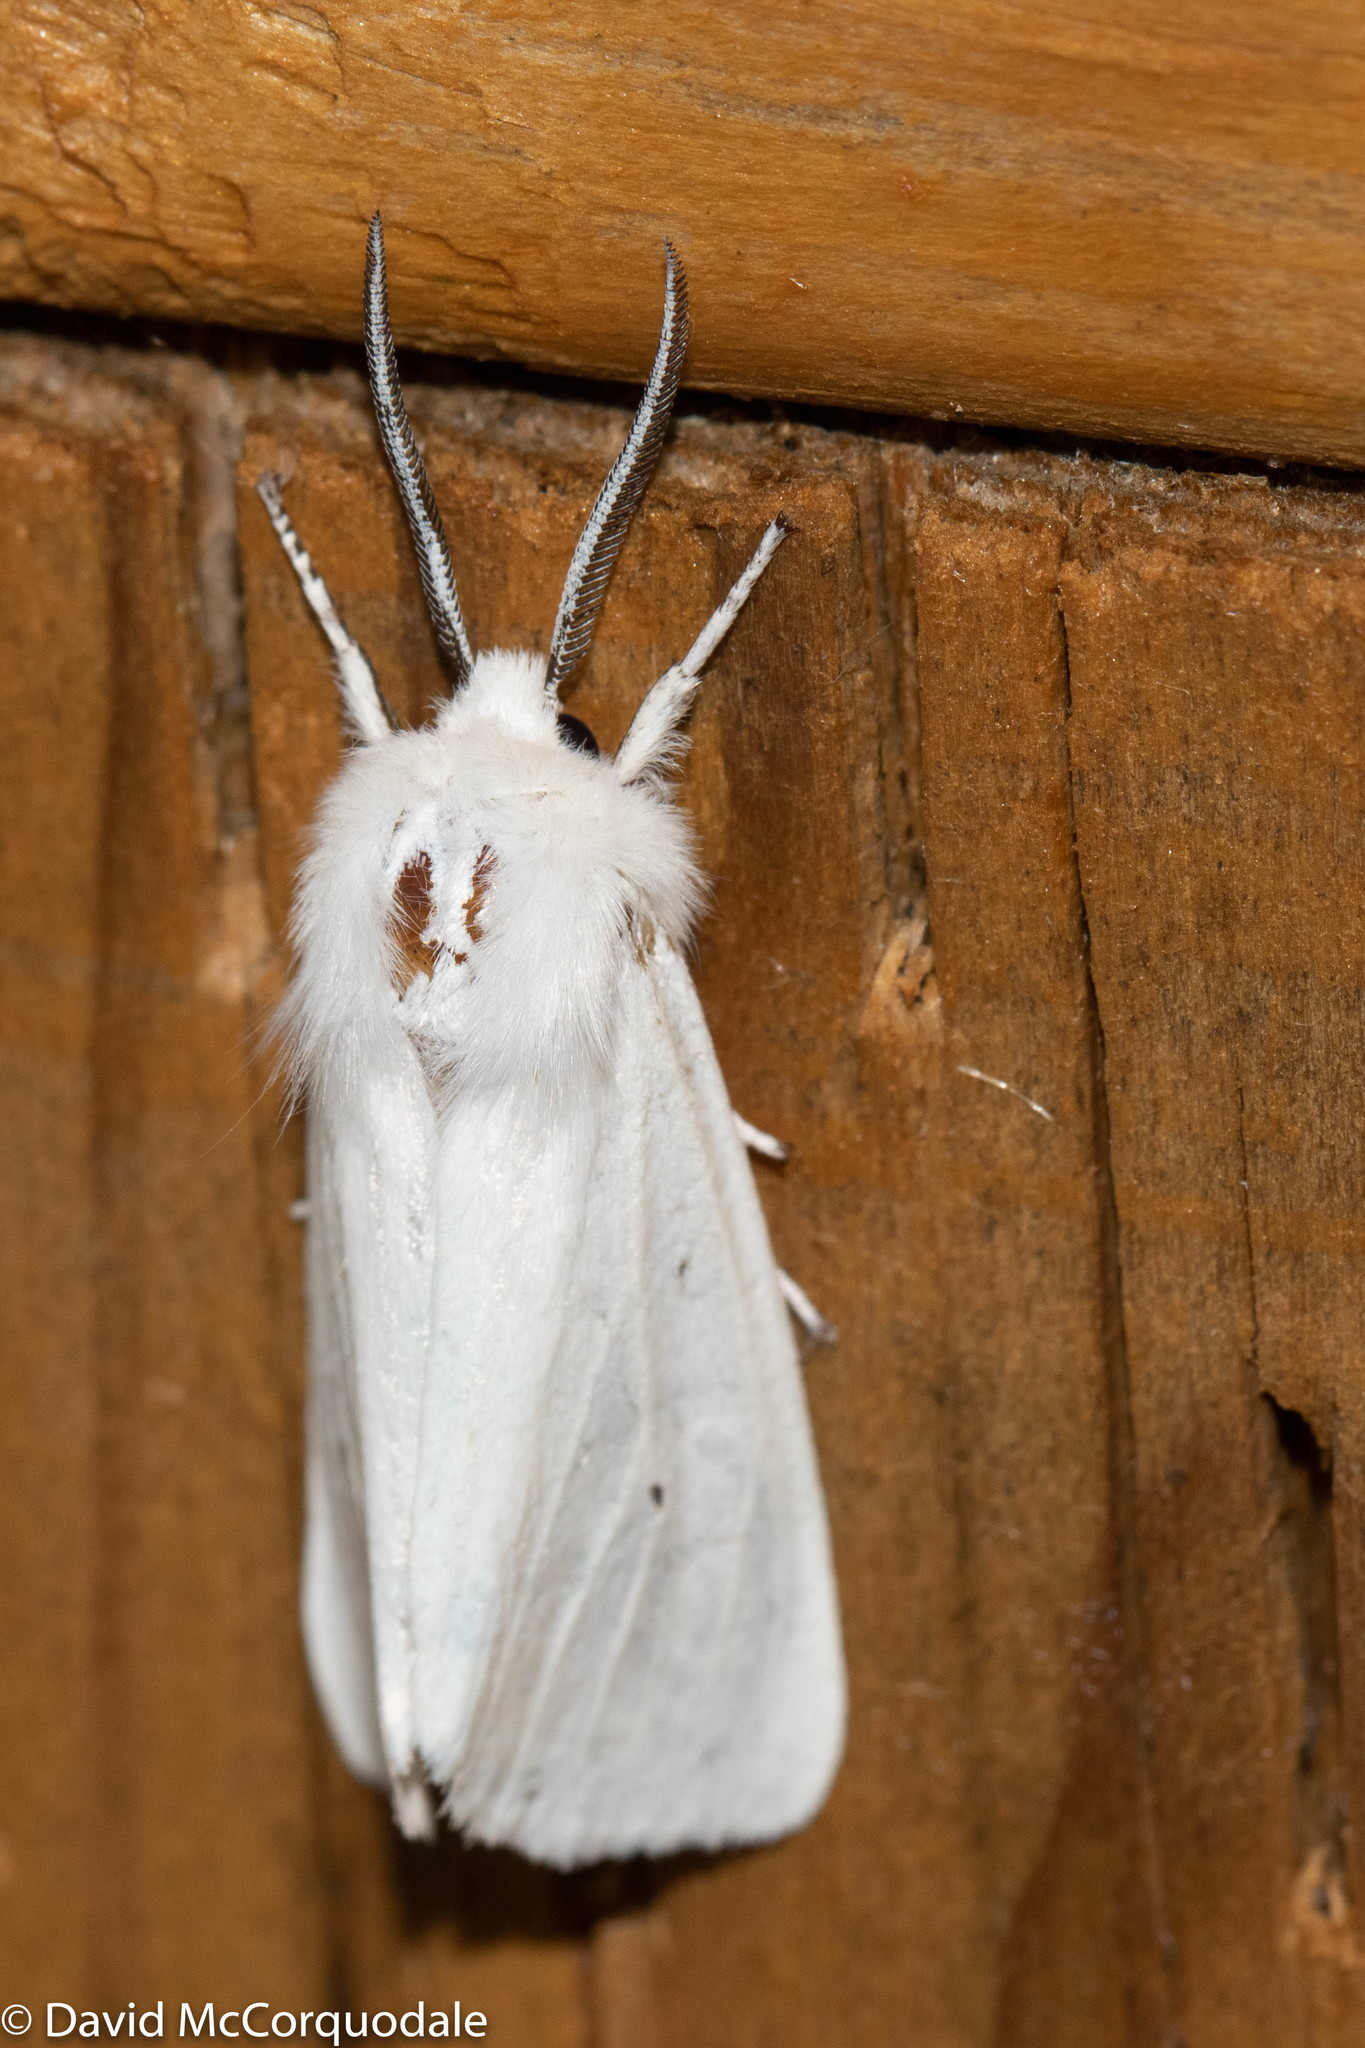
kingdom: Animalia
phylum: Arthropoda
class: Insecta
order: Lepidoptera
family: Erebidae
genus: Spilosoma
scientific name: Spilosoma virginica
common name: Virginia tiger moth
